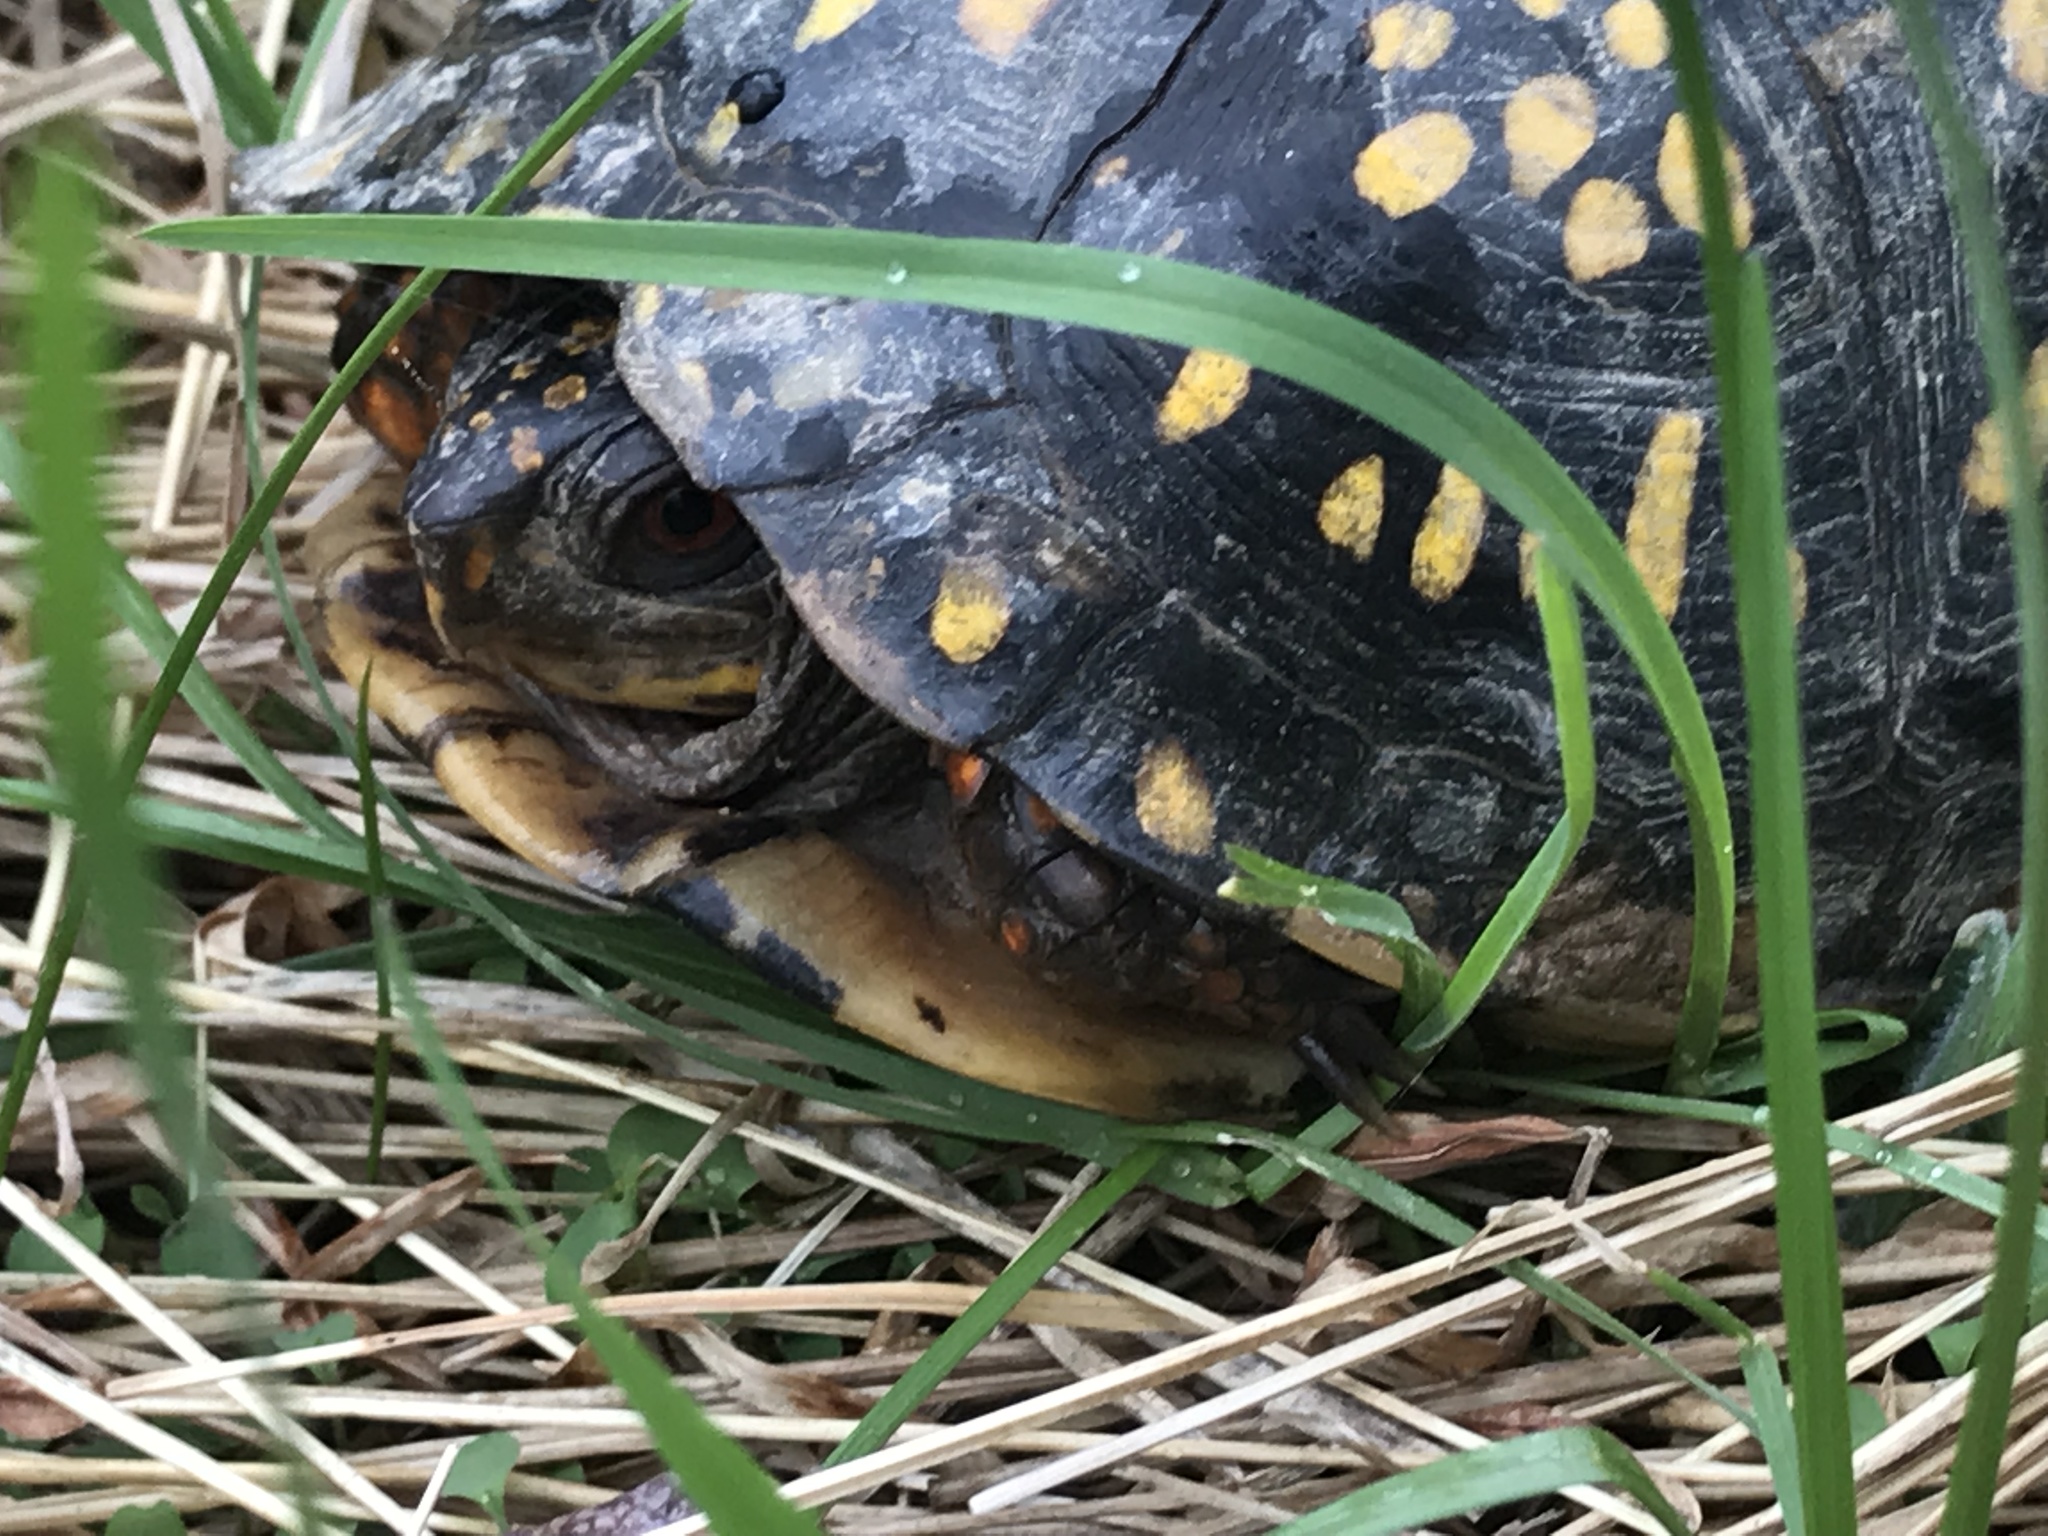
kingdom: Animalia
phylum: Chordata
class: Testudines
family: Emydidae
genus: Terrapene
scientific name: Terrapene carolina
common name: Common box turtle
